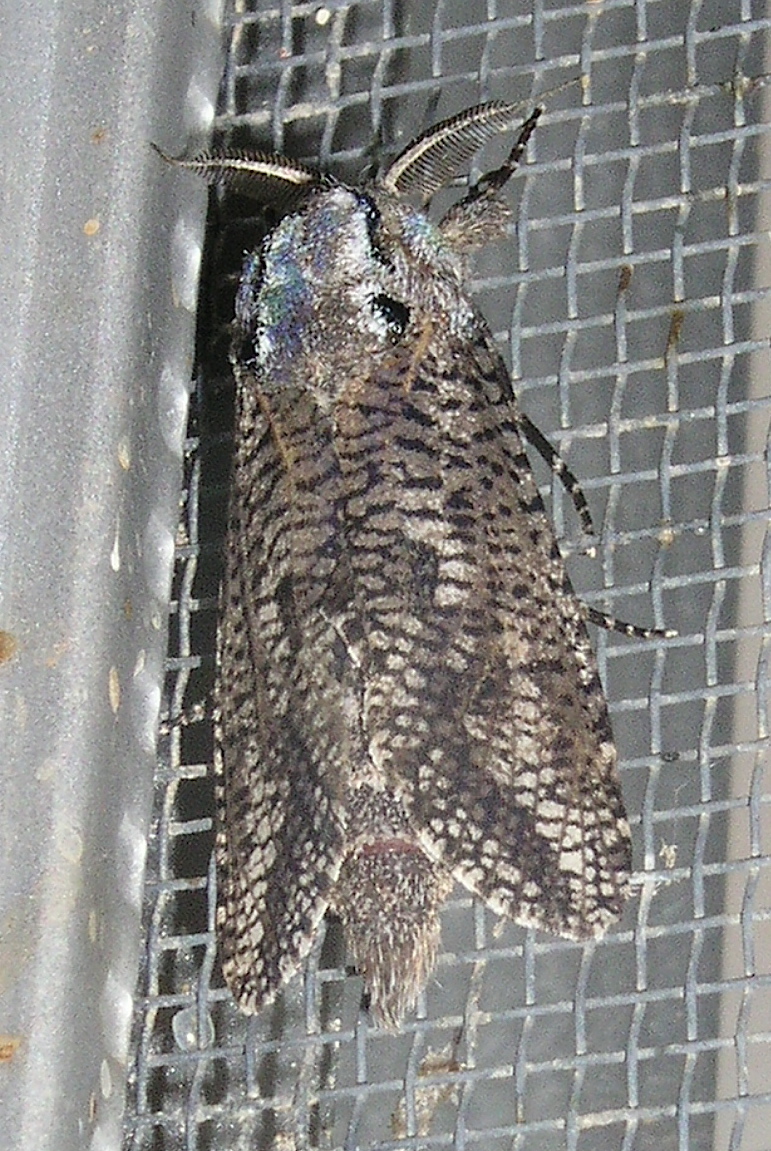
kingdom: Animalia
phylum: Arthropoda
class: Insecta
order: Lepidoptera
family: Cossidae
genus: Endoxyla
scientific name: Endoxyla amphiplecta
